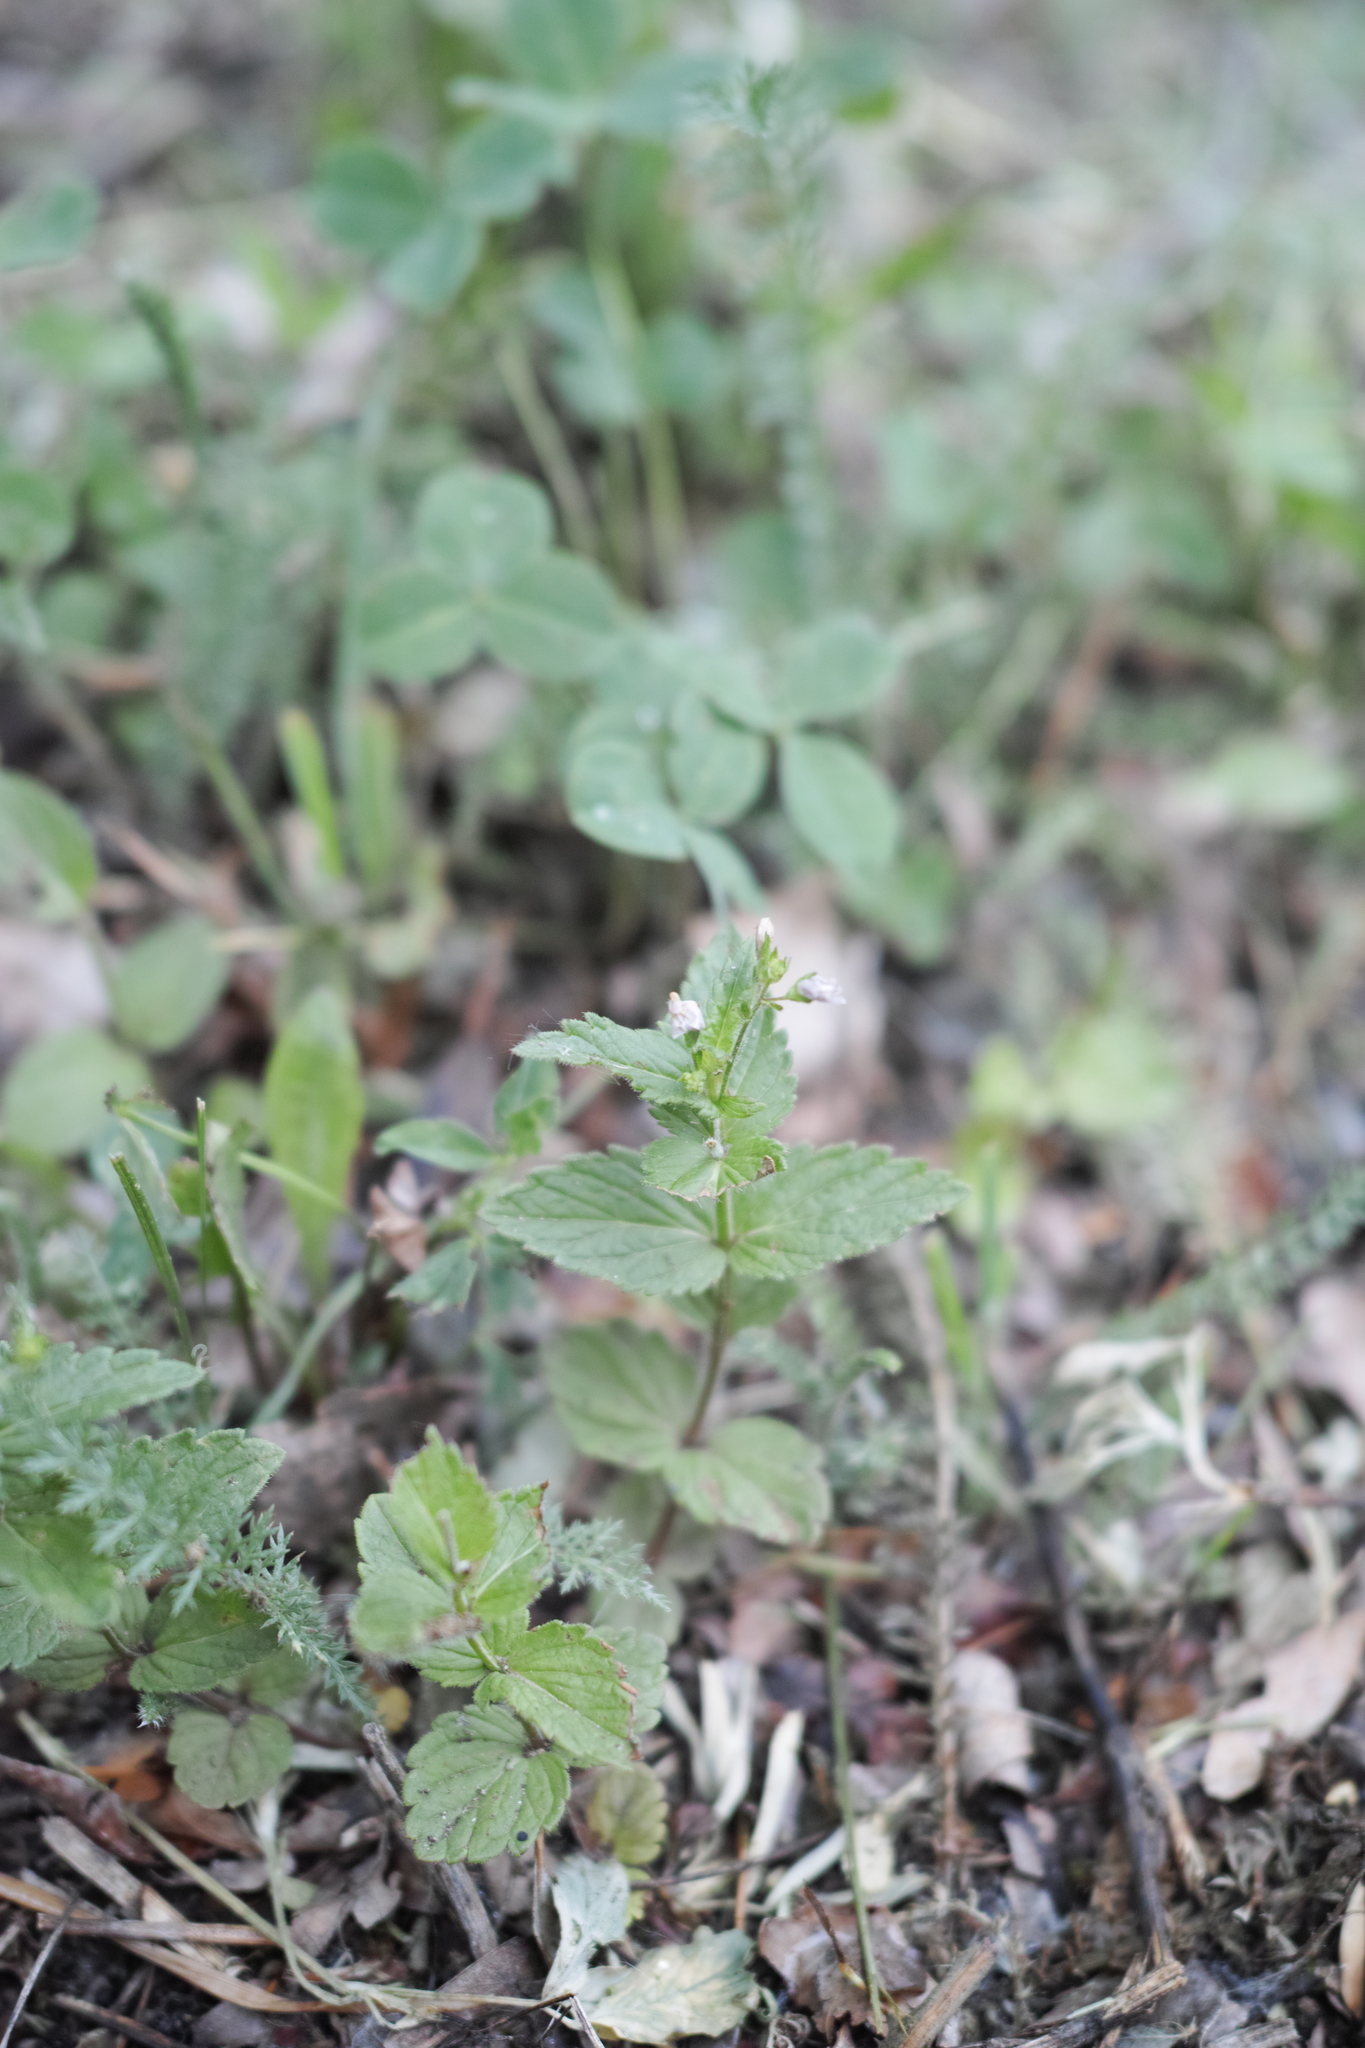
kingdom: Plantae
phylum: Tracheophyta
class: Magnoliopsida
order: Lamiales
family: Plantaginaceae
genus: Veronica
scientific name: Veronica chamaedrys
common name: Germander speedwell
